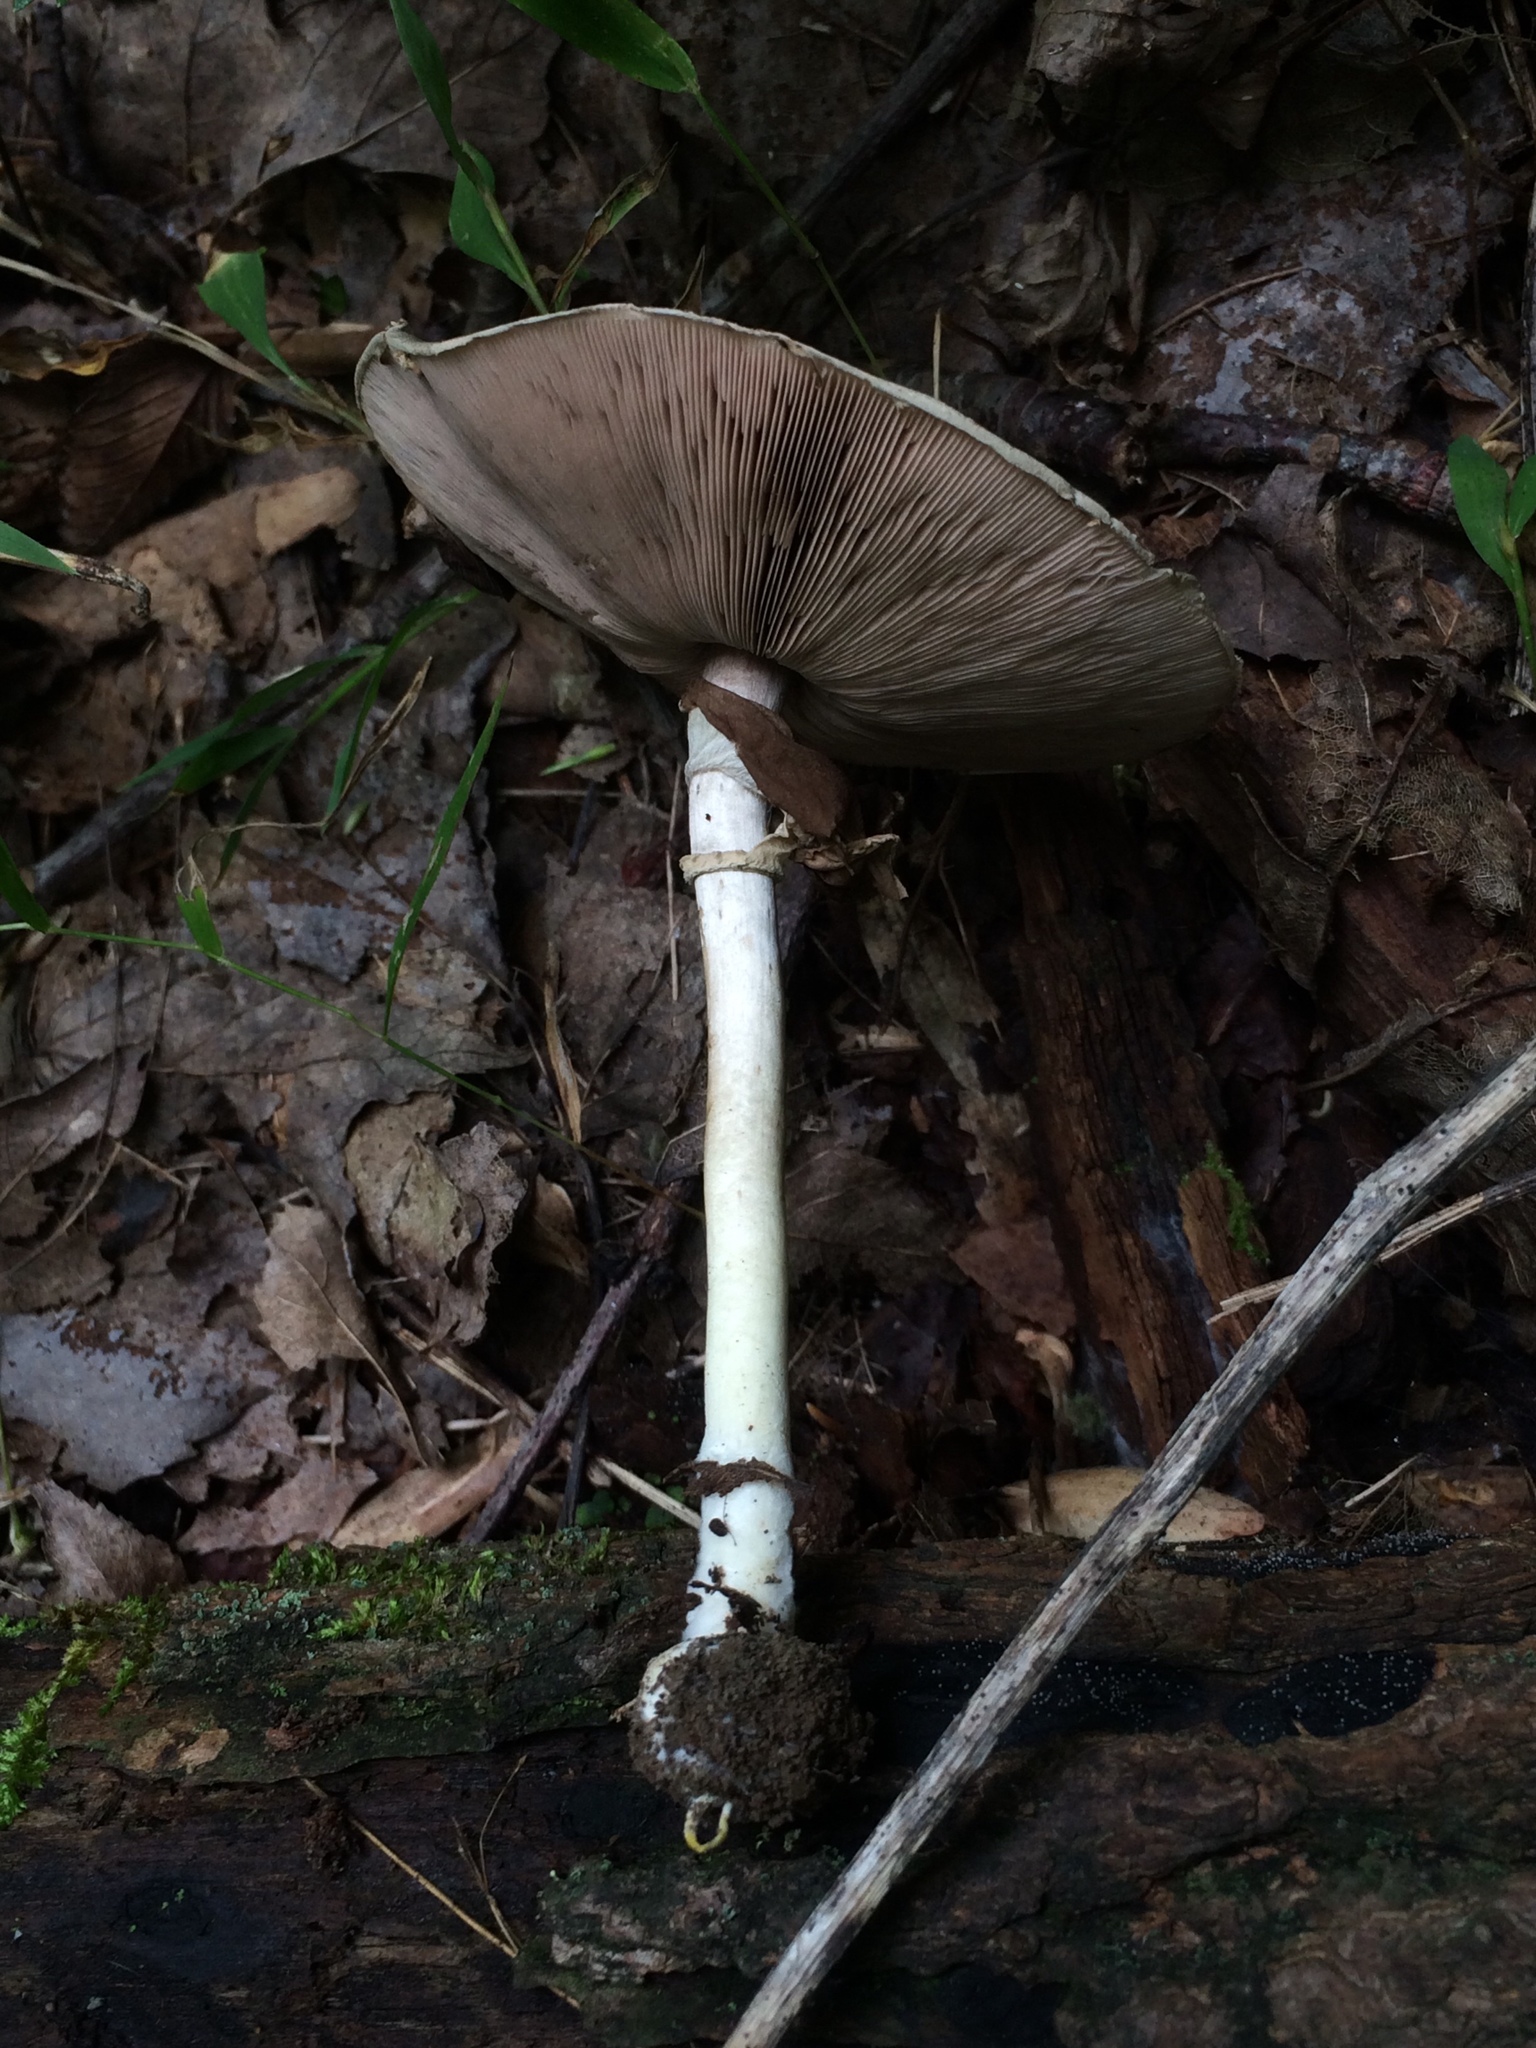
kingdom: Fungi
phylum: Basidiomycota
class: Agaricomycetes
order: Agaricales
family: Agaricaceae
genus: Agaricus
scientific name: Agaricus pocillator
